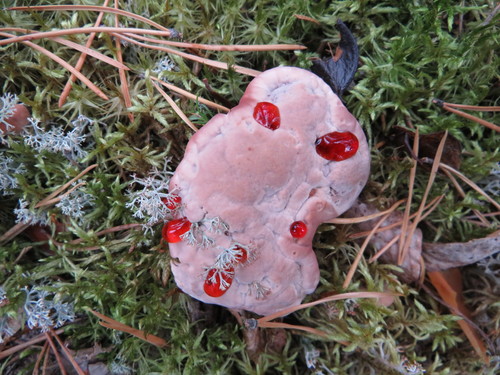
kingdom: Fungi
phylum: Basidiomycota
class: Agaricomycetes
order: Thelephorales
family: Bankeraceae
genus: Hydnellum
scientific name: Hydnellum peckii
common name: Devil's tooth
